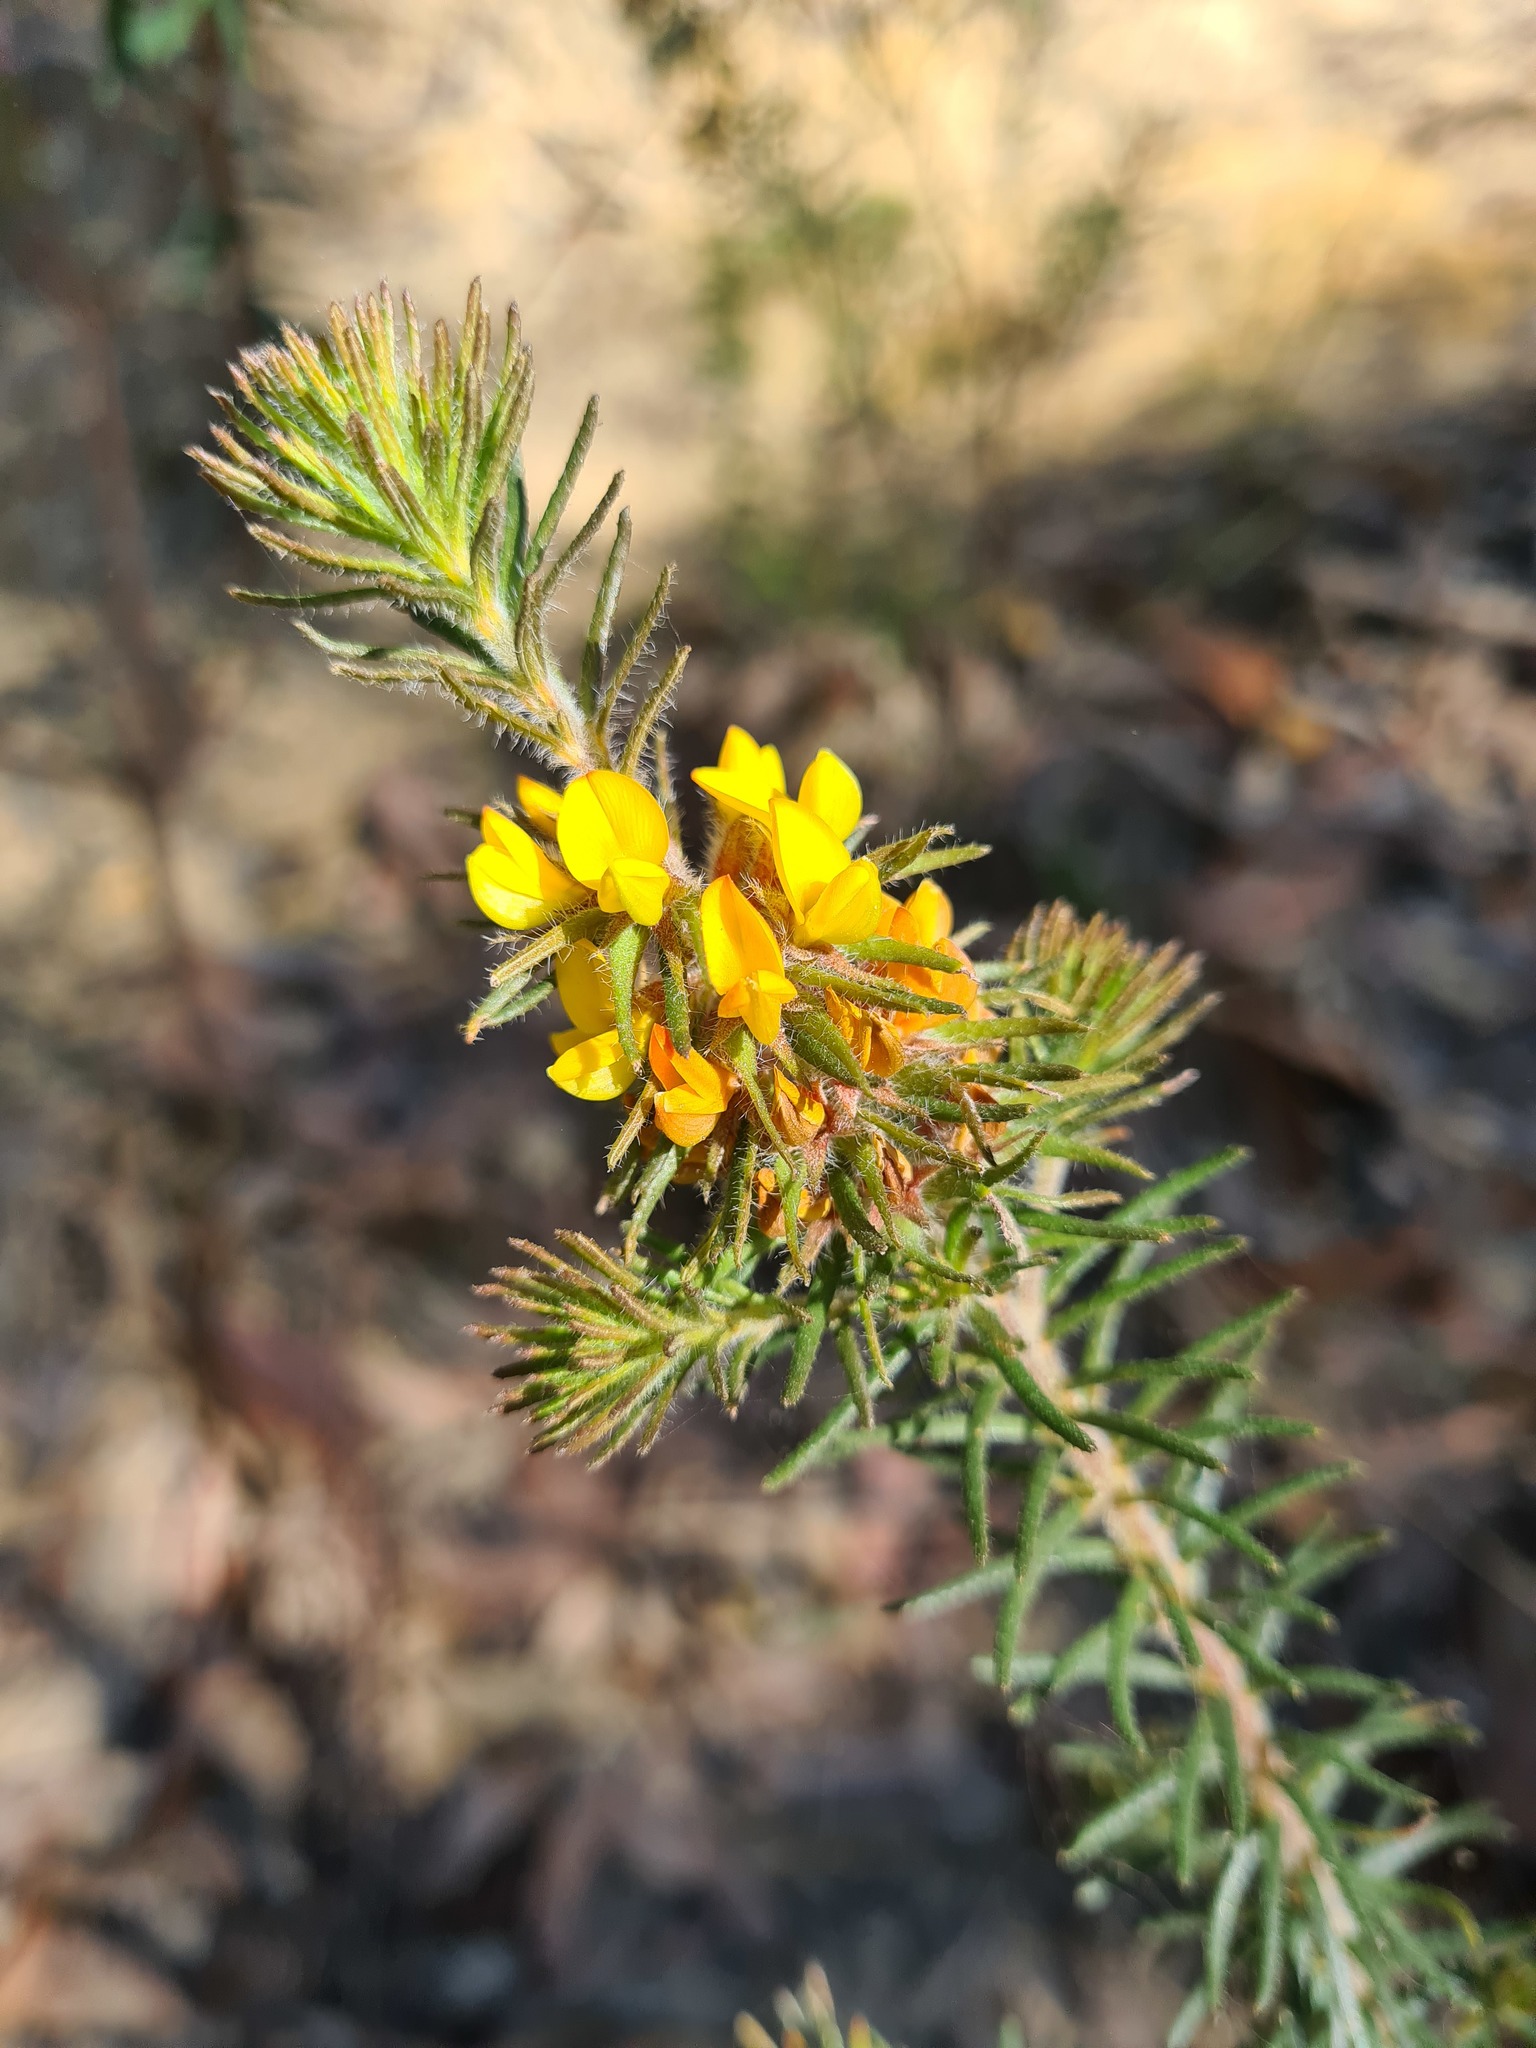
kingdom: Plantae
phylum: Tracheophyta
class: Magnoliopsida
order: Fabales
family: Fabaceae
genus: Phyllota
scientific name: Phyllota grandiflora
